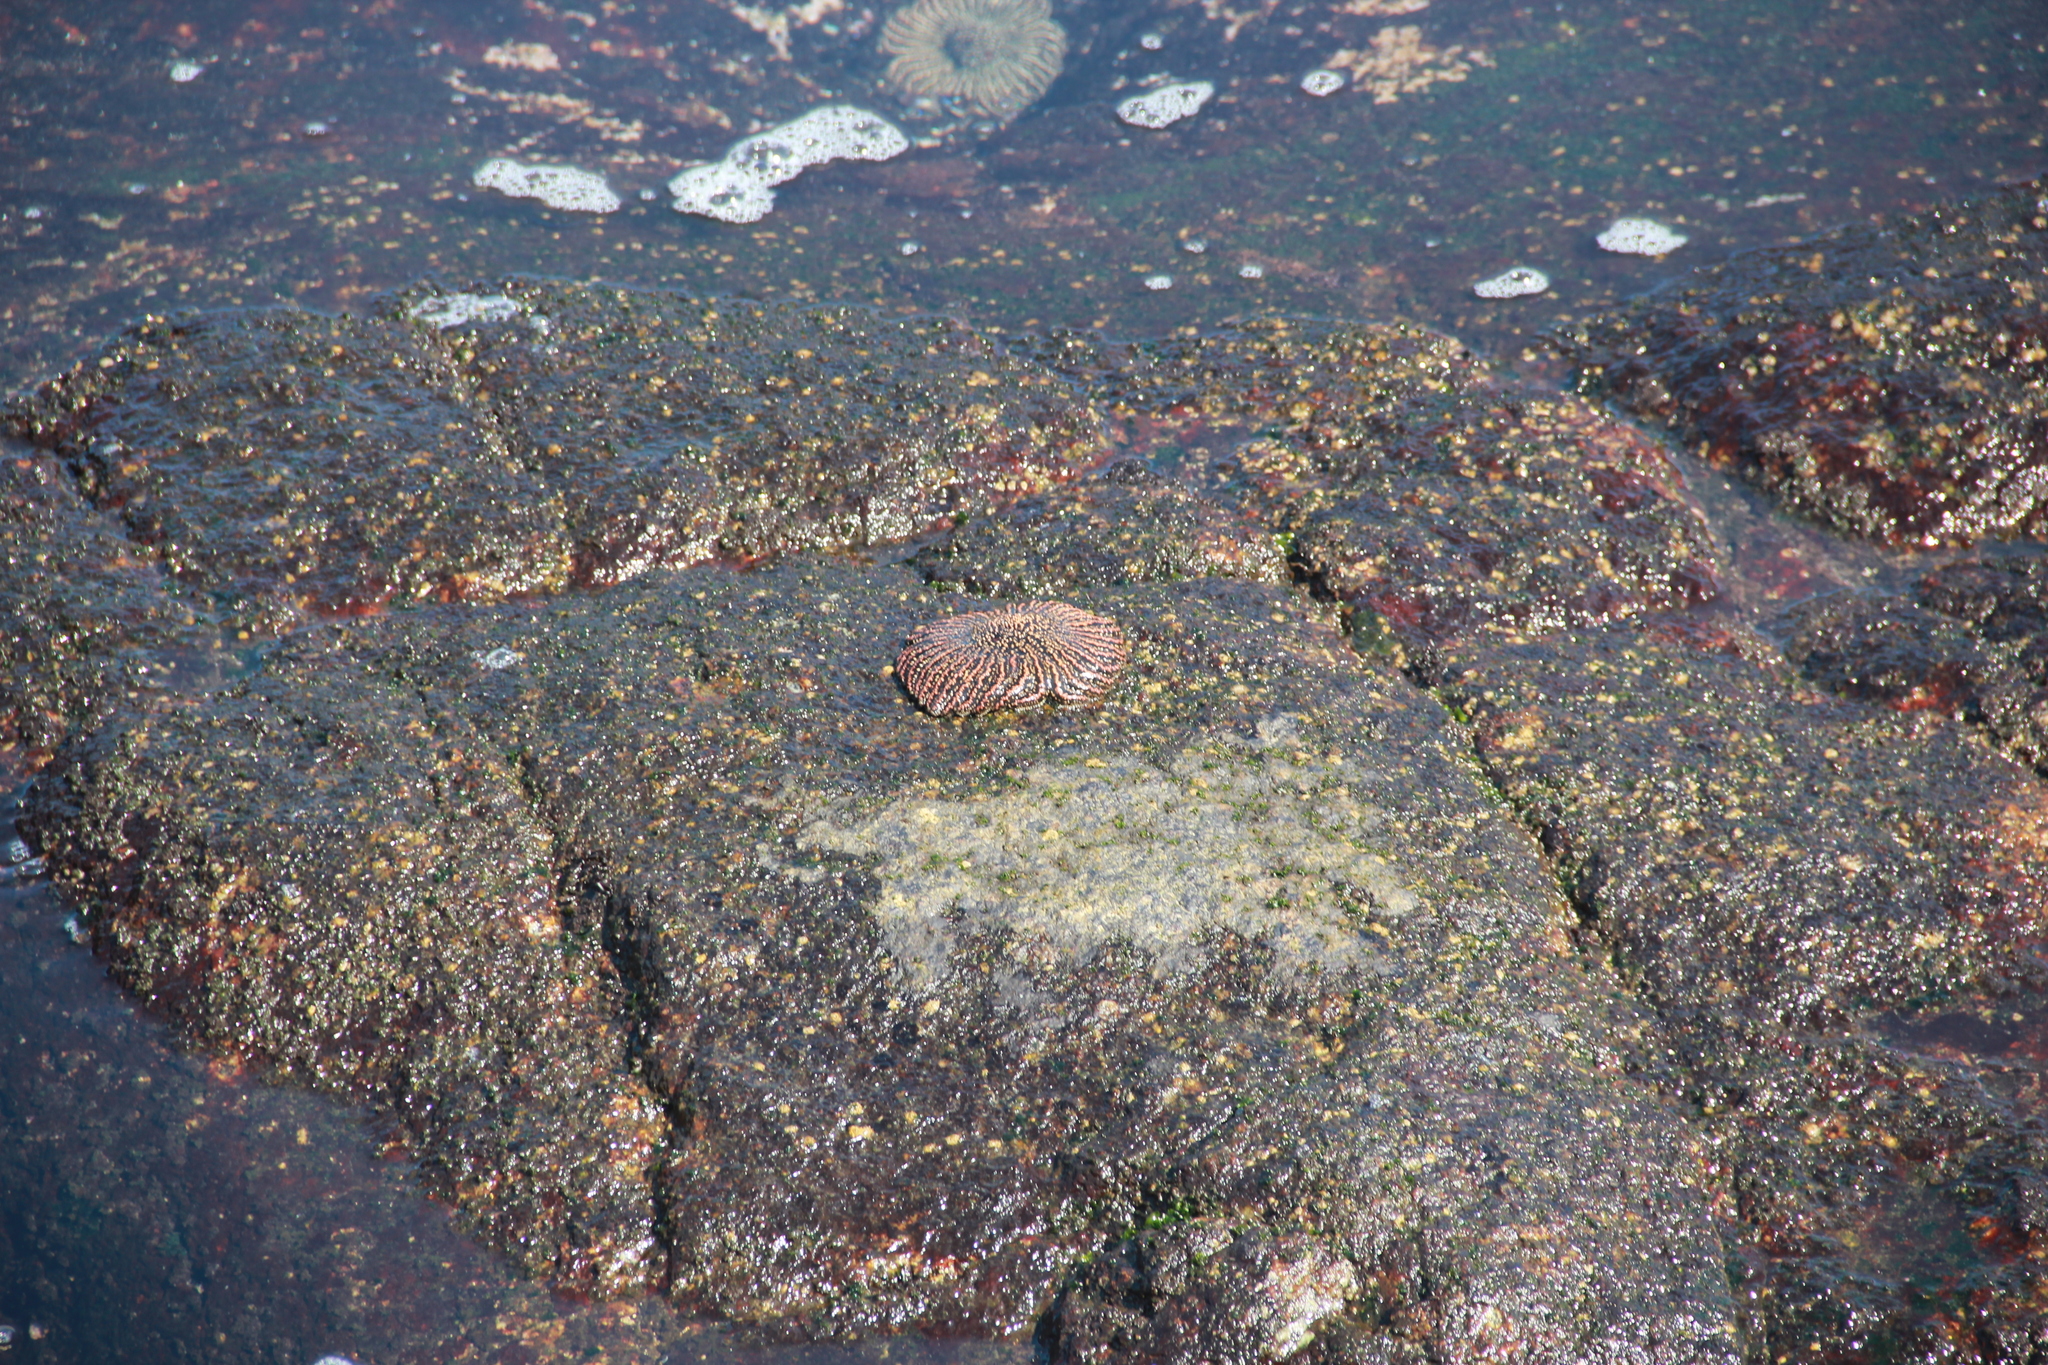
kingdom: Animalia
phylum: Echinodermata
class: Asteroidea
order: Forcipulatida
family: Heliasteridae
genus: Heliaster
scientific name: Heliaster helianthus
